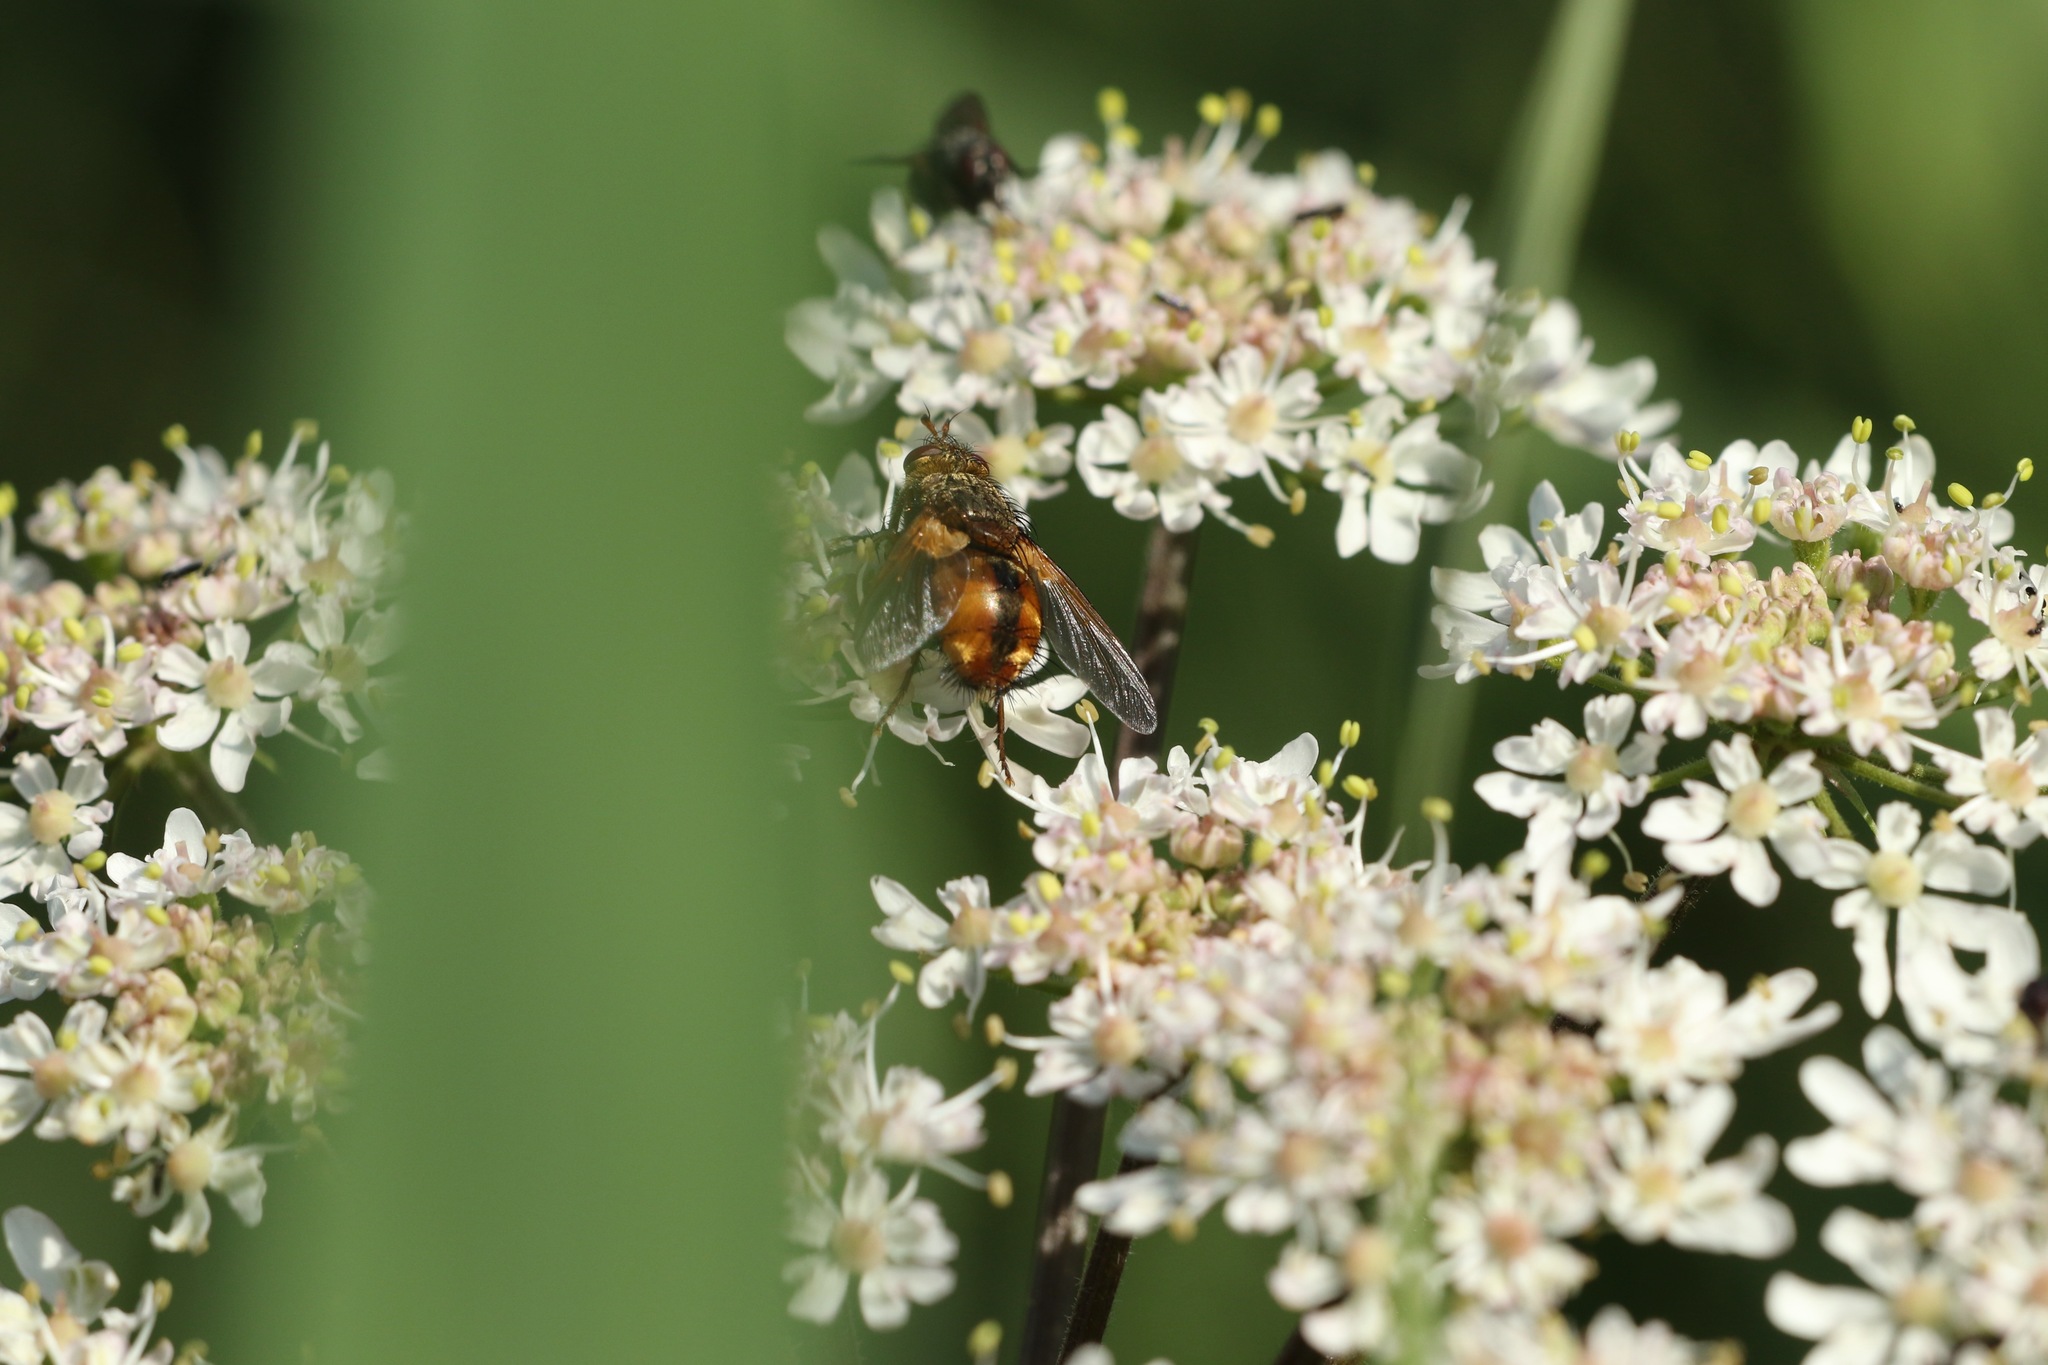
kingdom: Animalia
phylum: Arthropoda
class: Insecta
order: Diptera
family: Tachinidae
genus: Tachina
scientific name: Tachina fera
